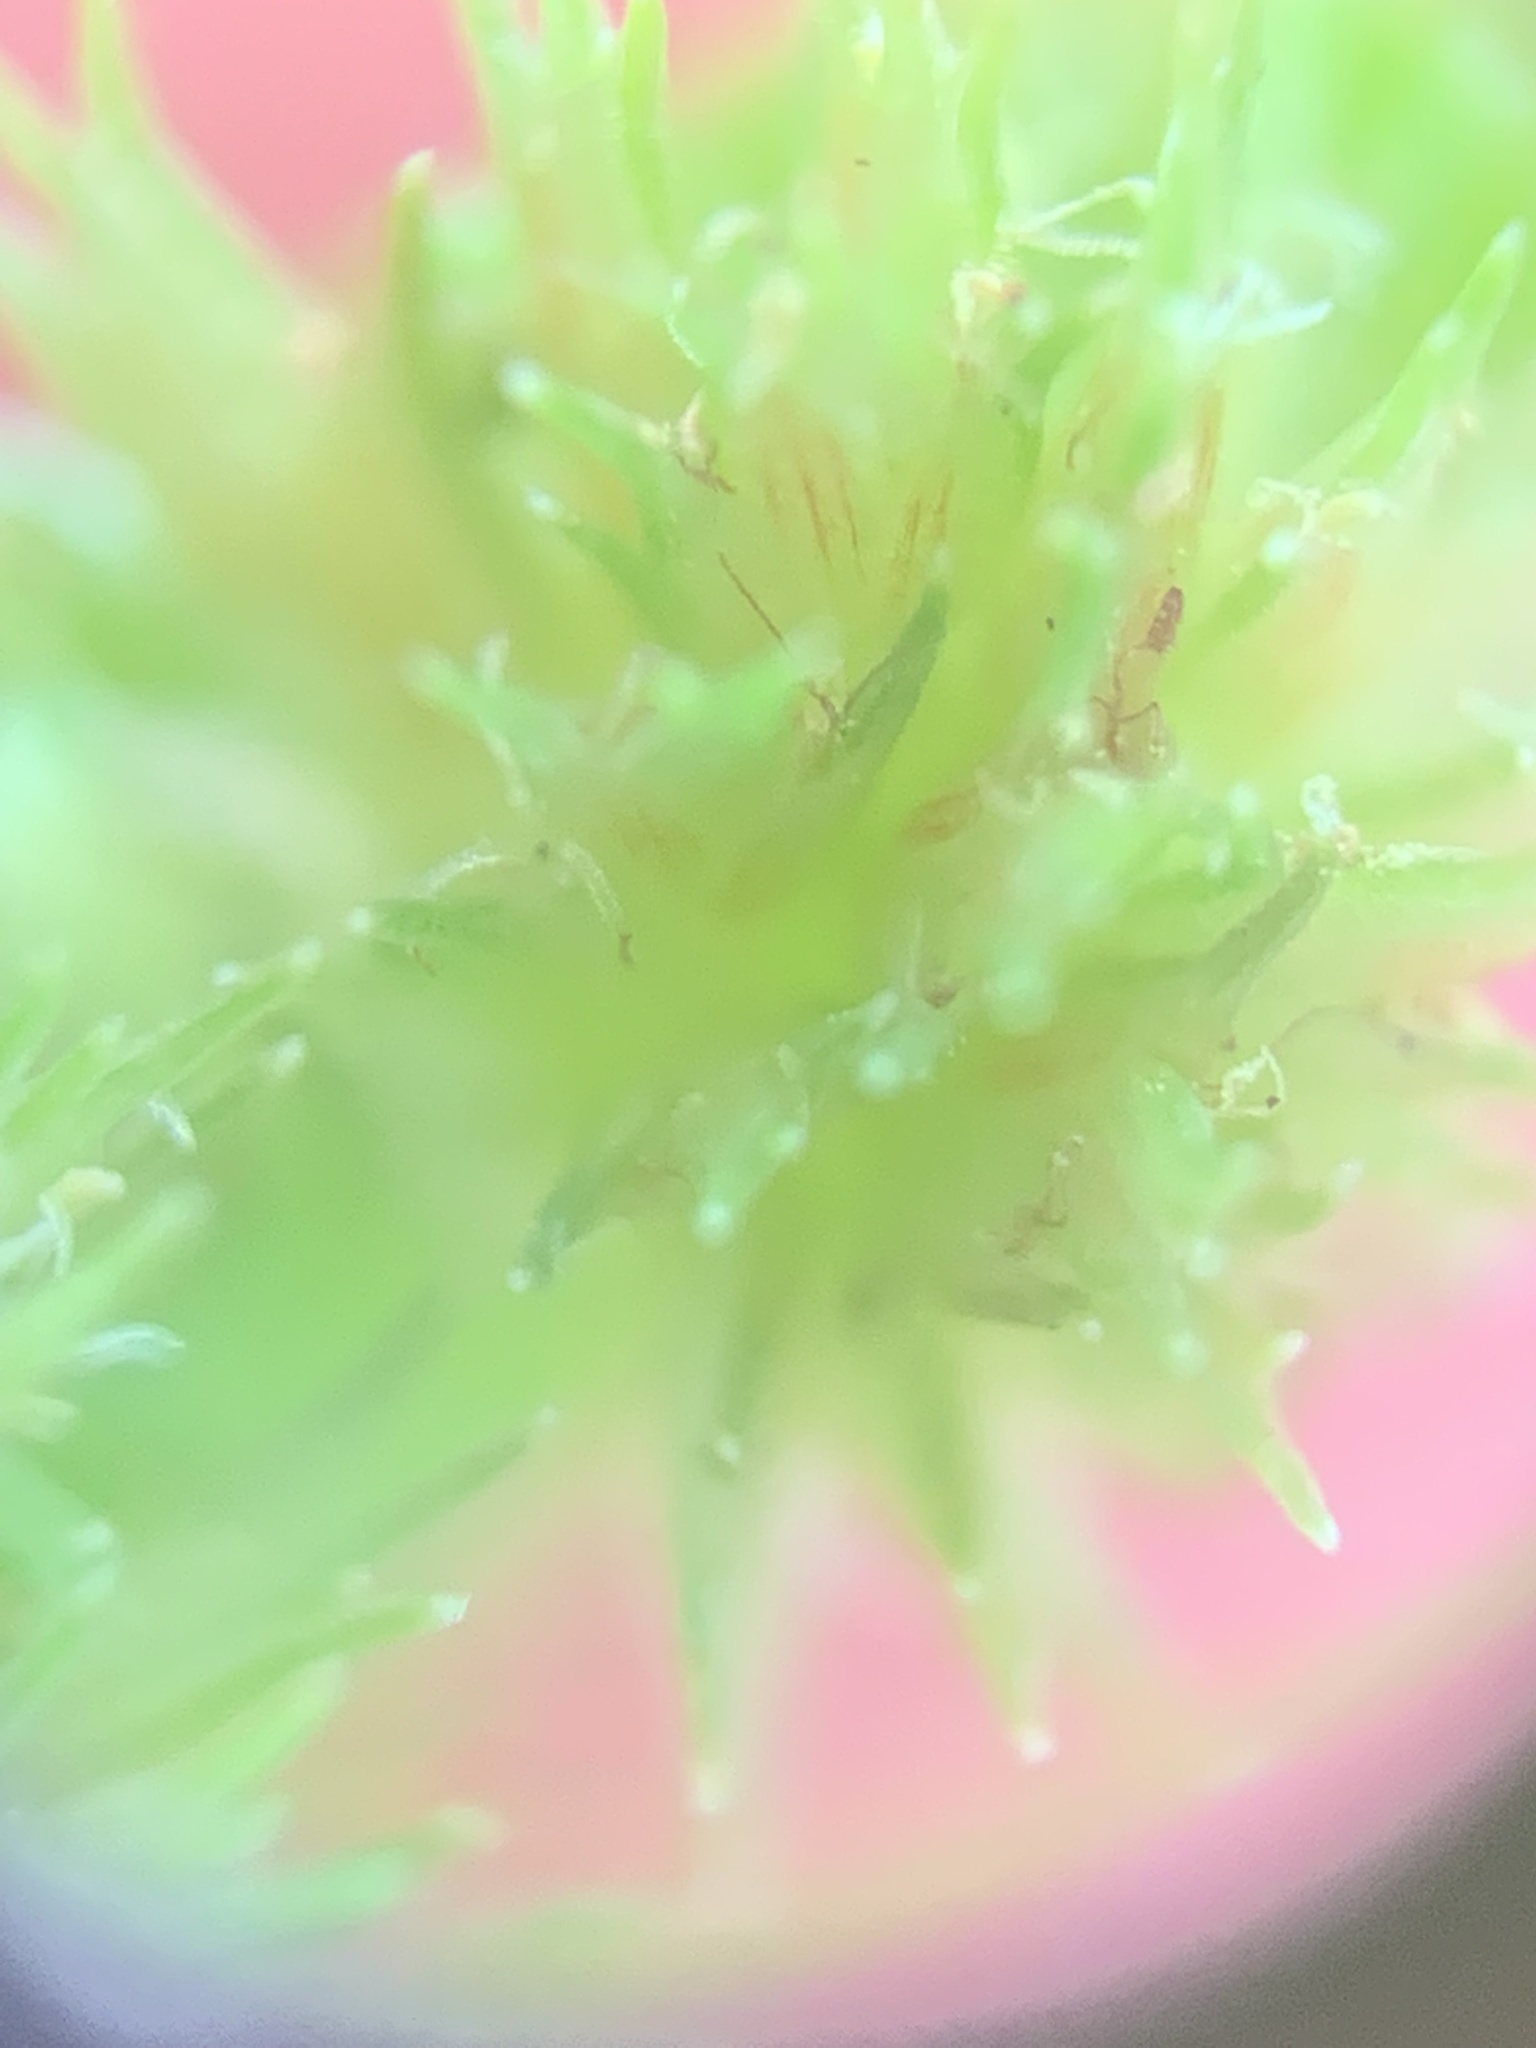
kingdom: Plantae
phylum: Tracheophyta
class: Liliopsida
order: Poales
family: Cyperaceae
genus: Cyperus
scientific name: Cyperus squarrosus
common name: Awned cyperus
